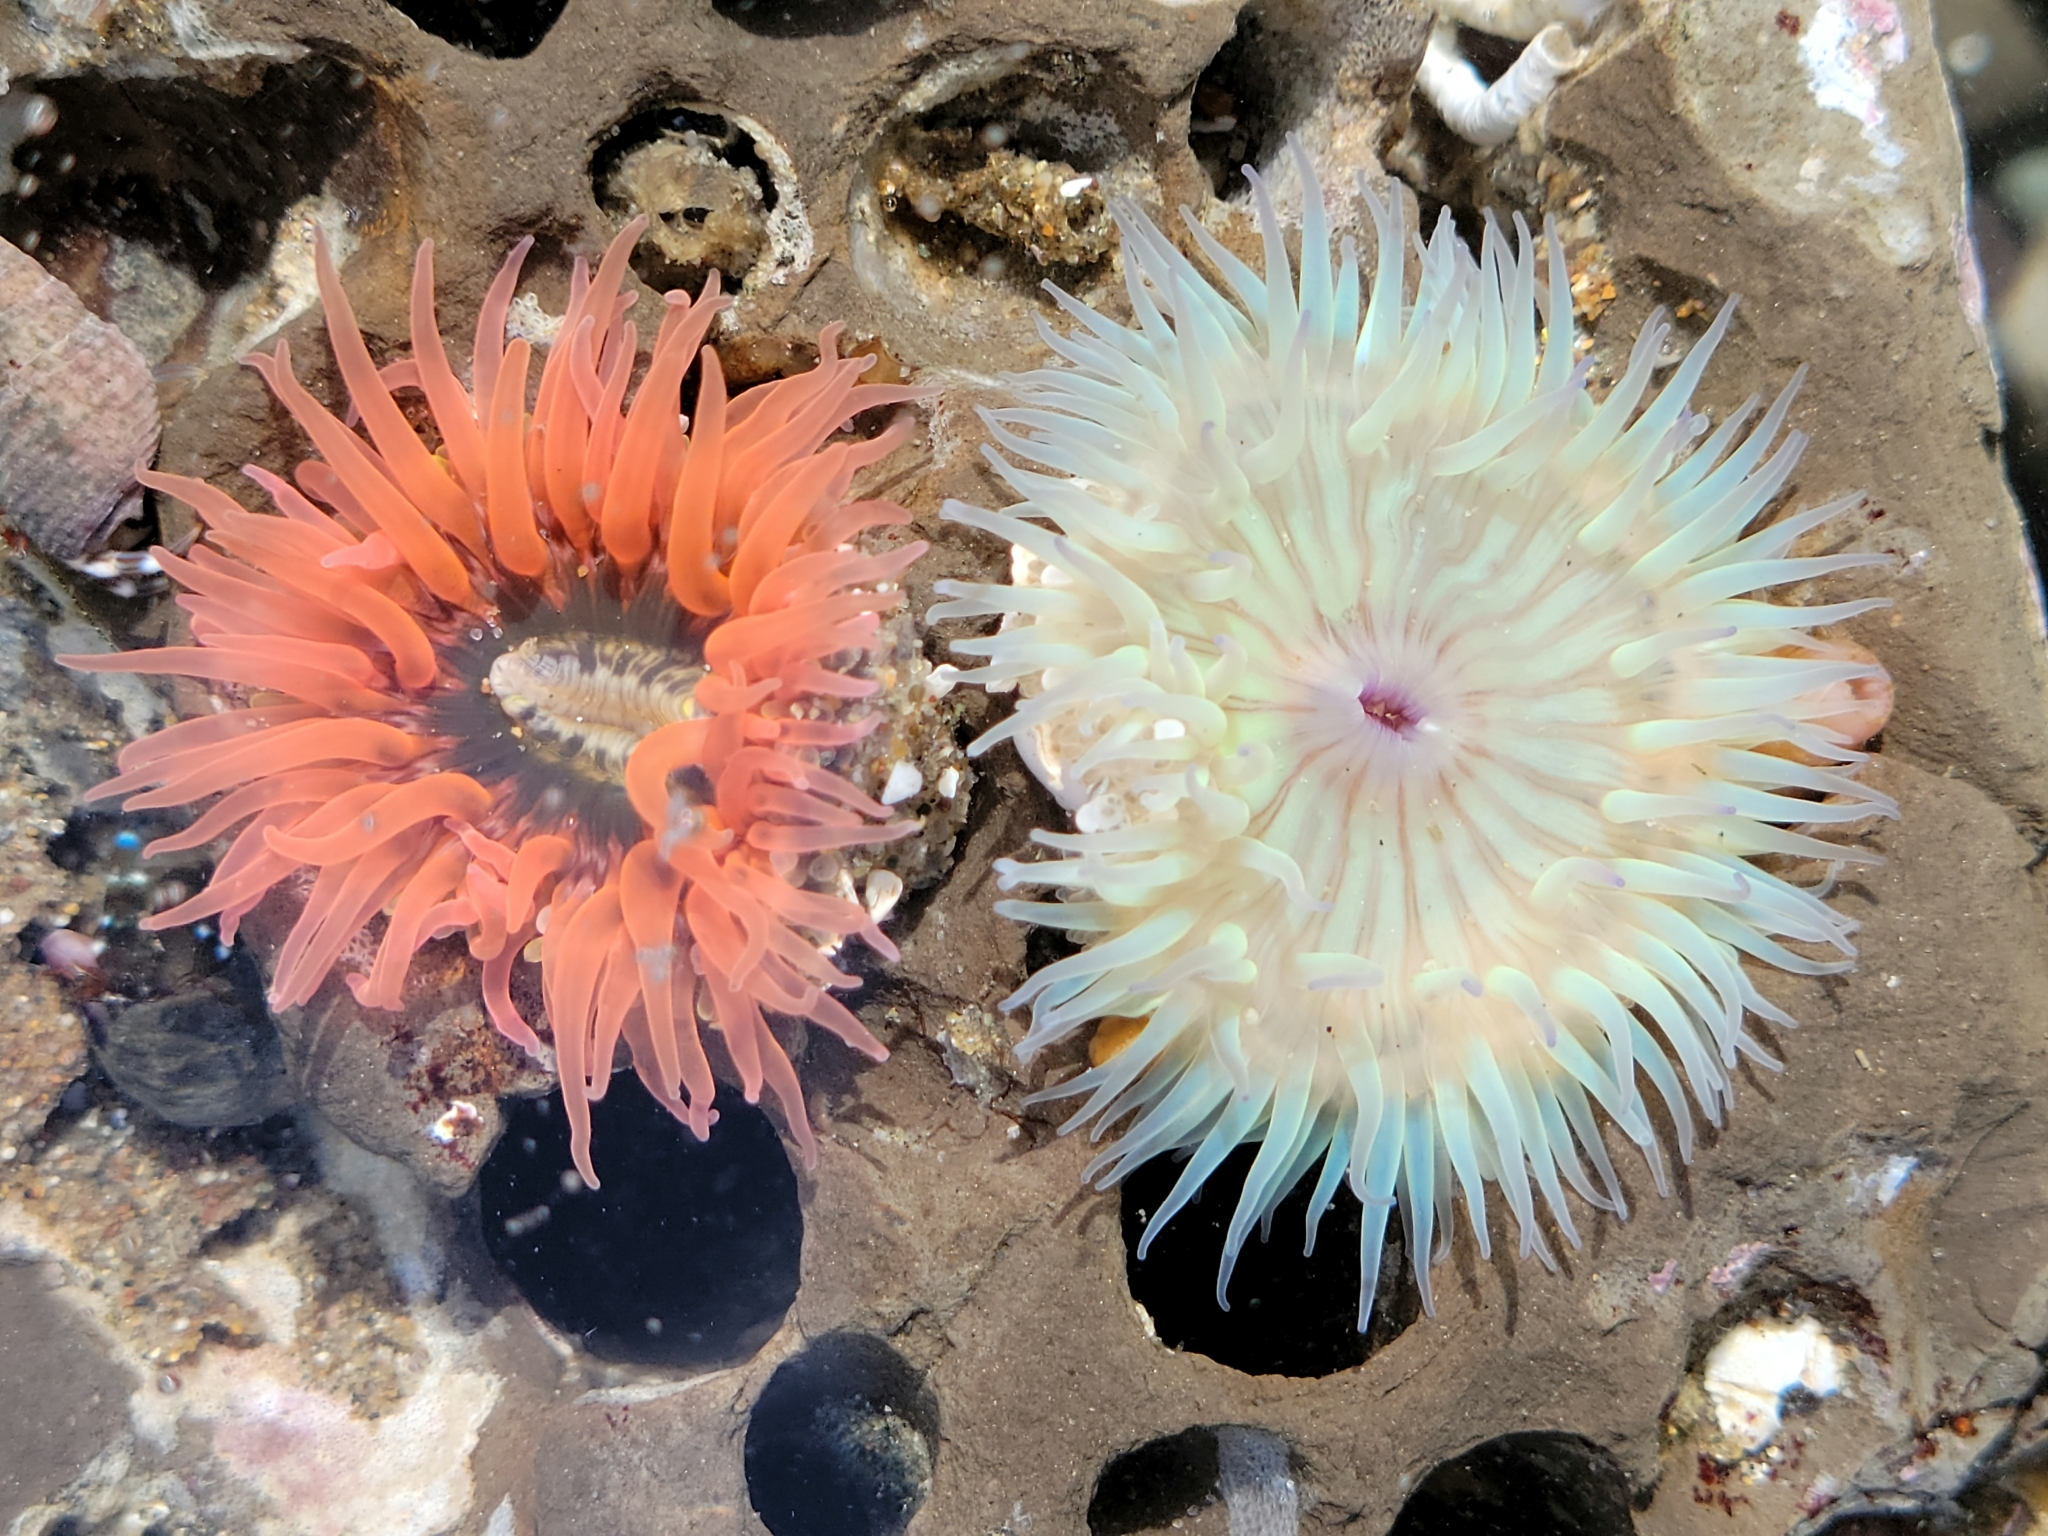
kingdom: Animalia
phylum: Cnidaria
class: Anthozoa
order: Actiniaria
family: Actiniidae
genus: Anthopleura
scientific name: Anthopleura artemisia
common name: Buried sea anemone
